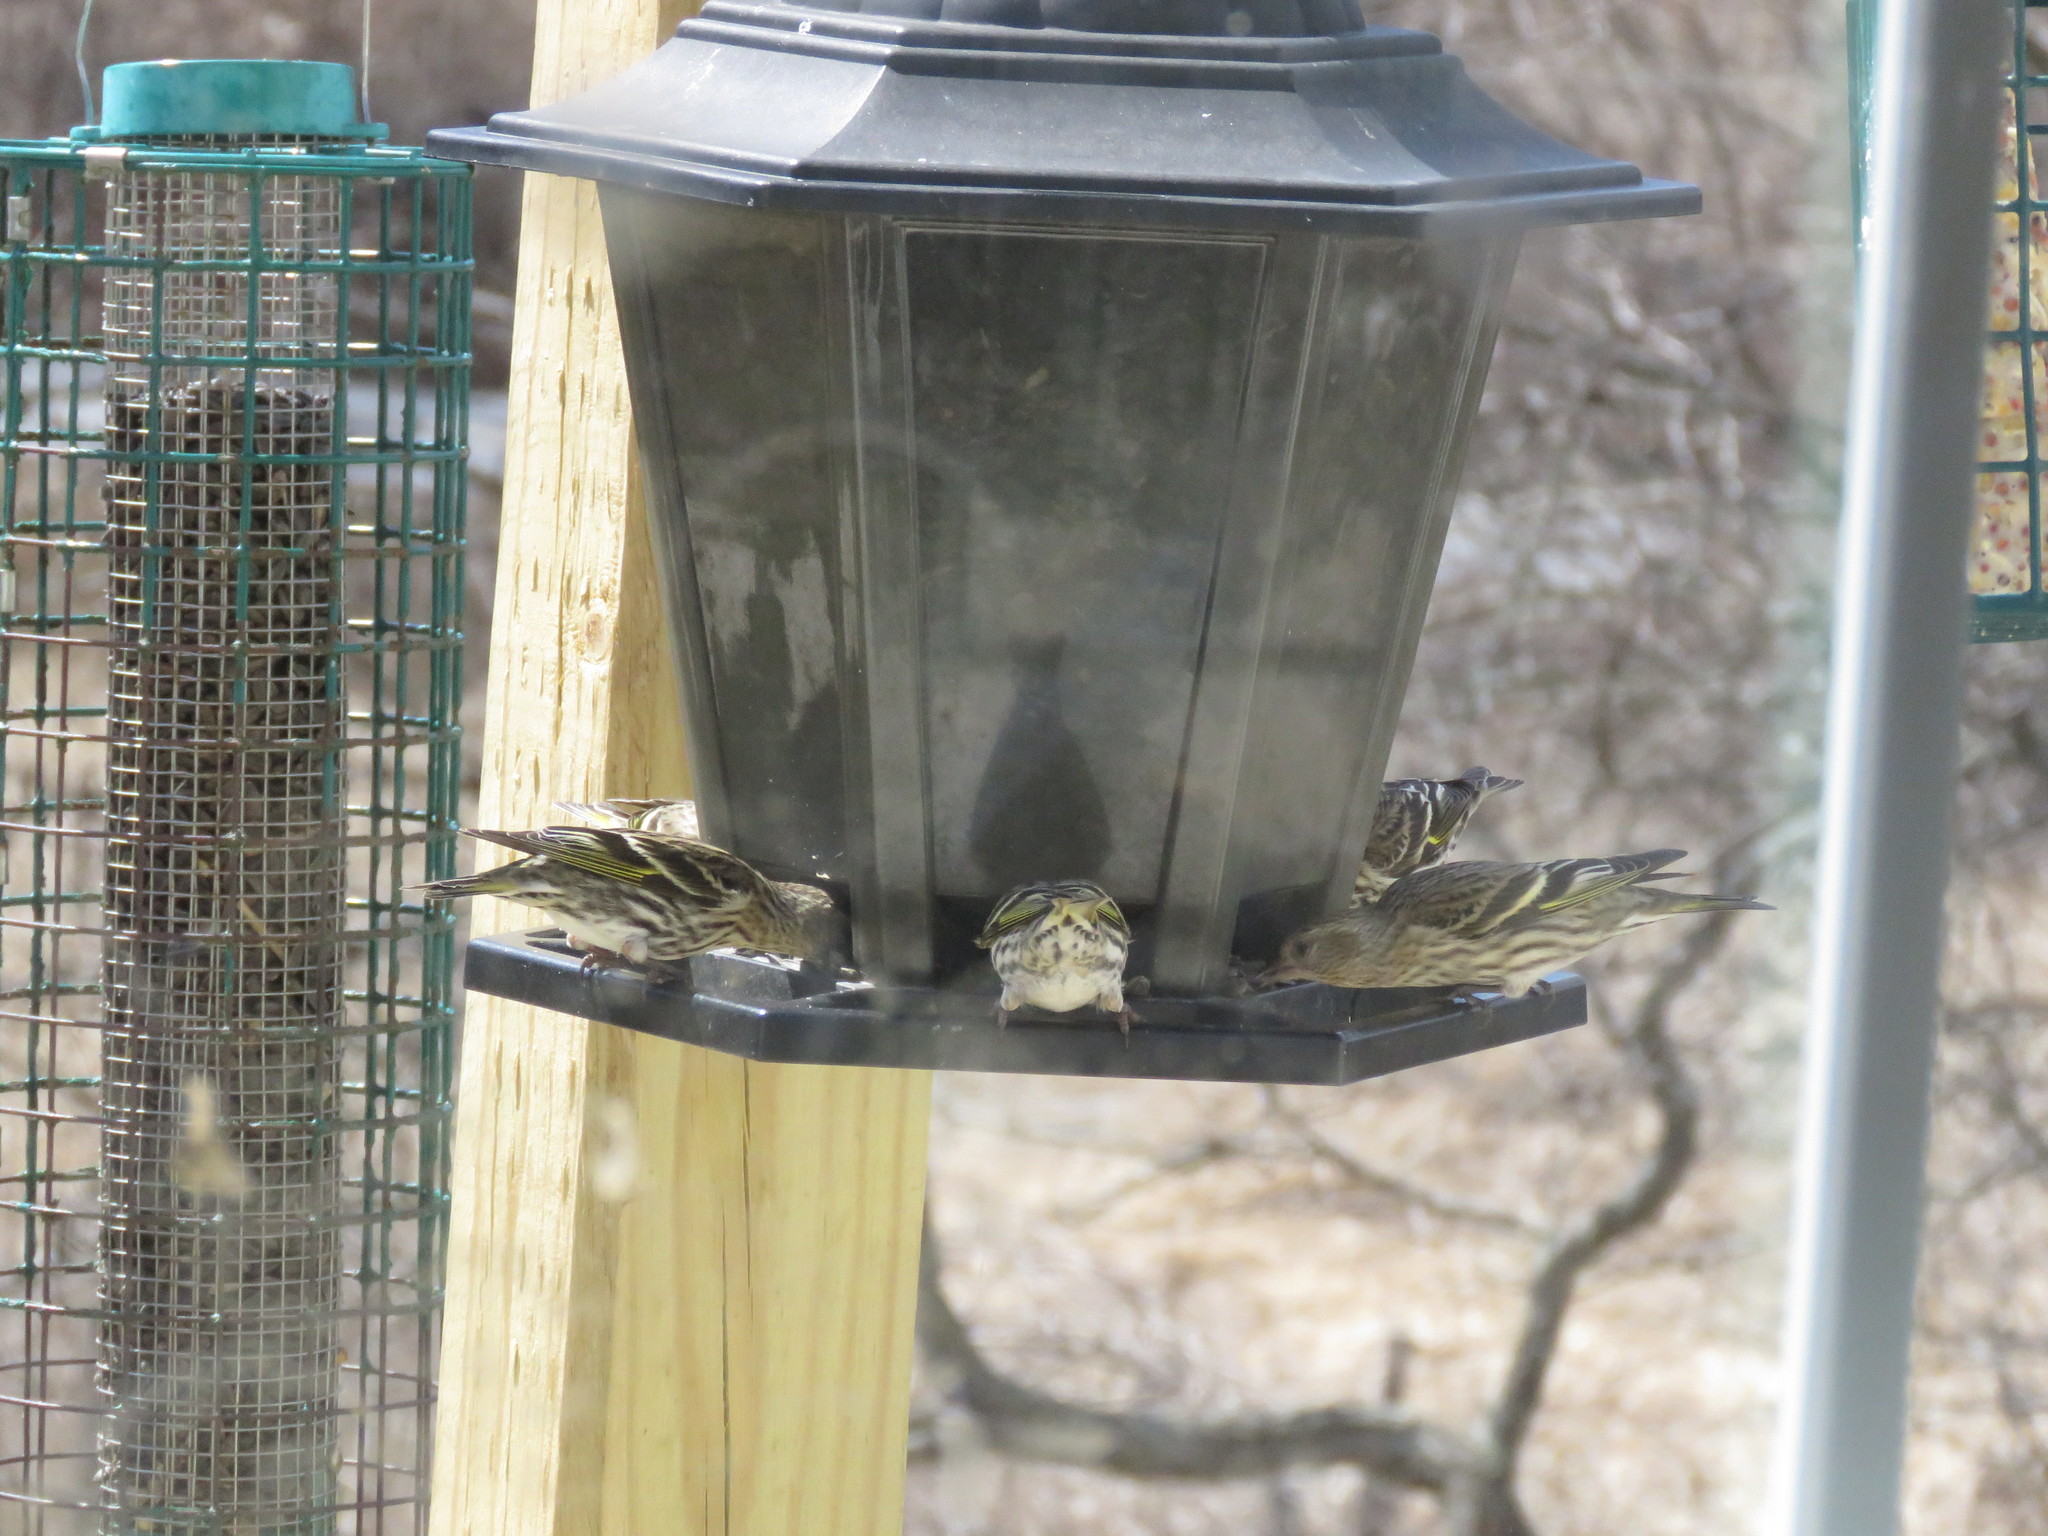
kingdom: Animalia
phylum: Chordata
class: Aves
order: Passeriformes
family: Fringillidae
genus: Spinus
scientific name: Spinus pinus
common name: Pine siskin
